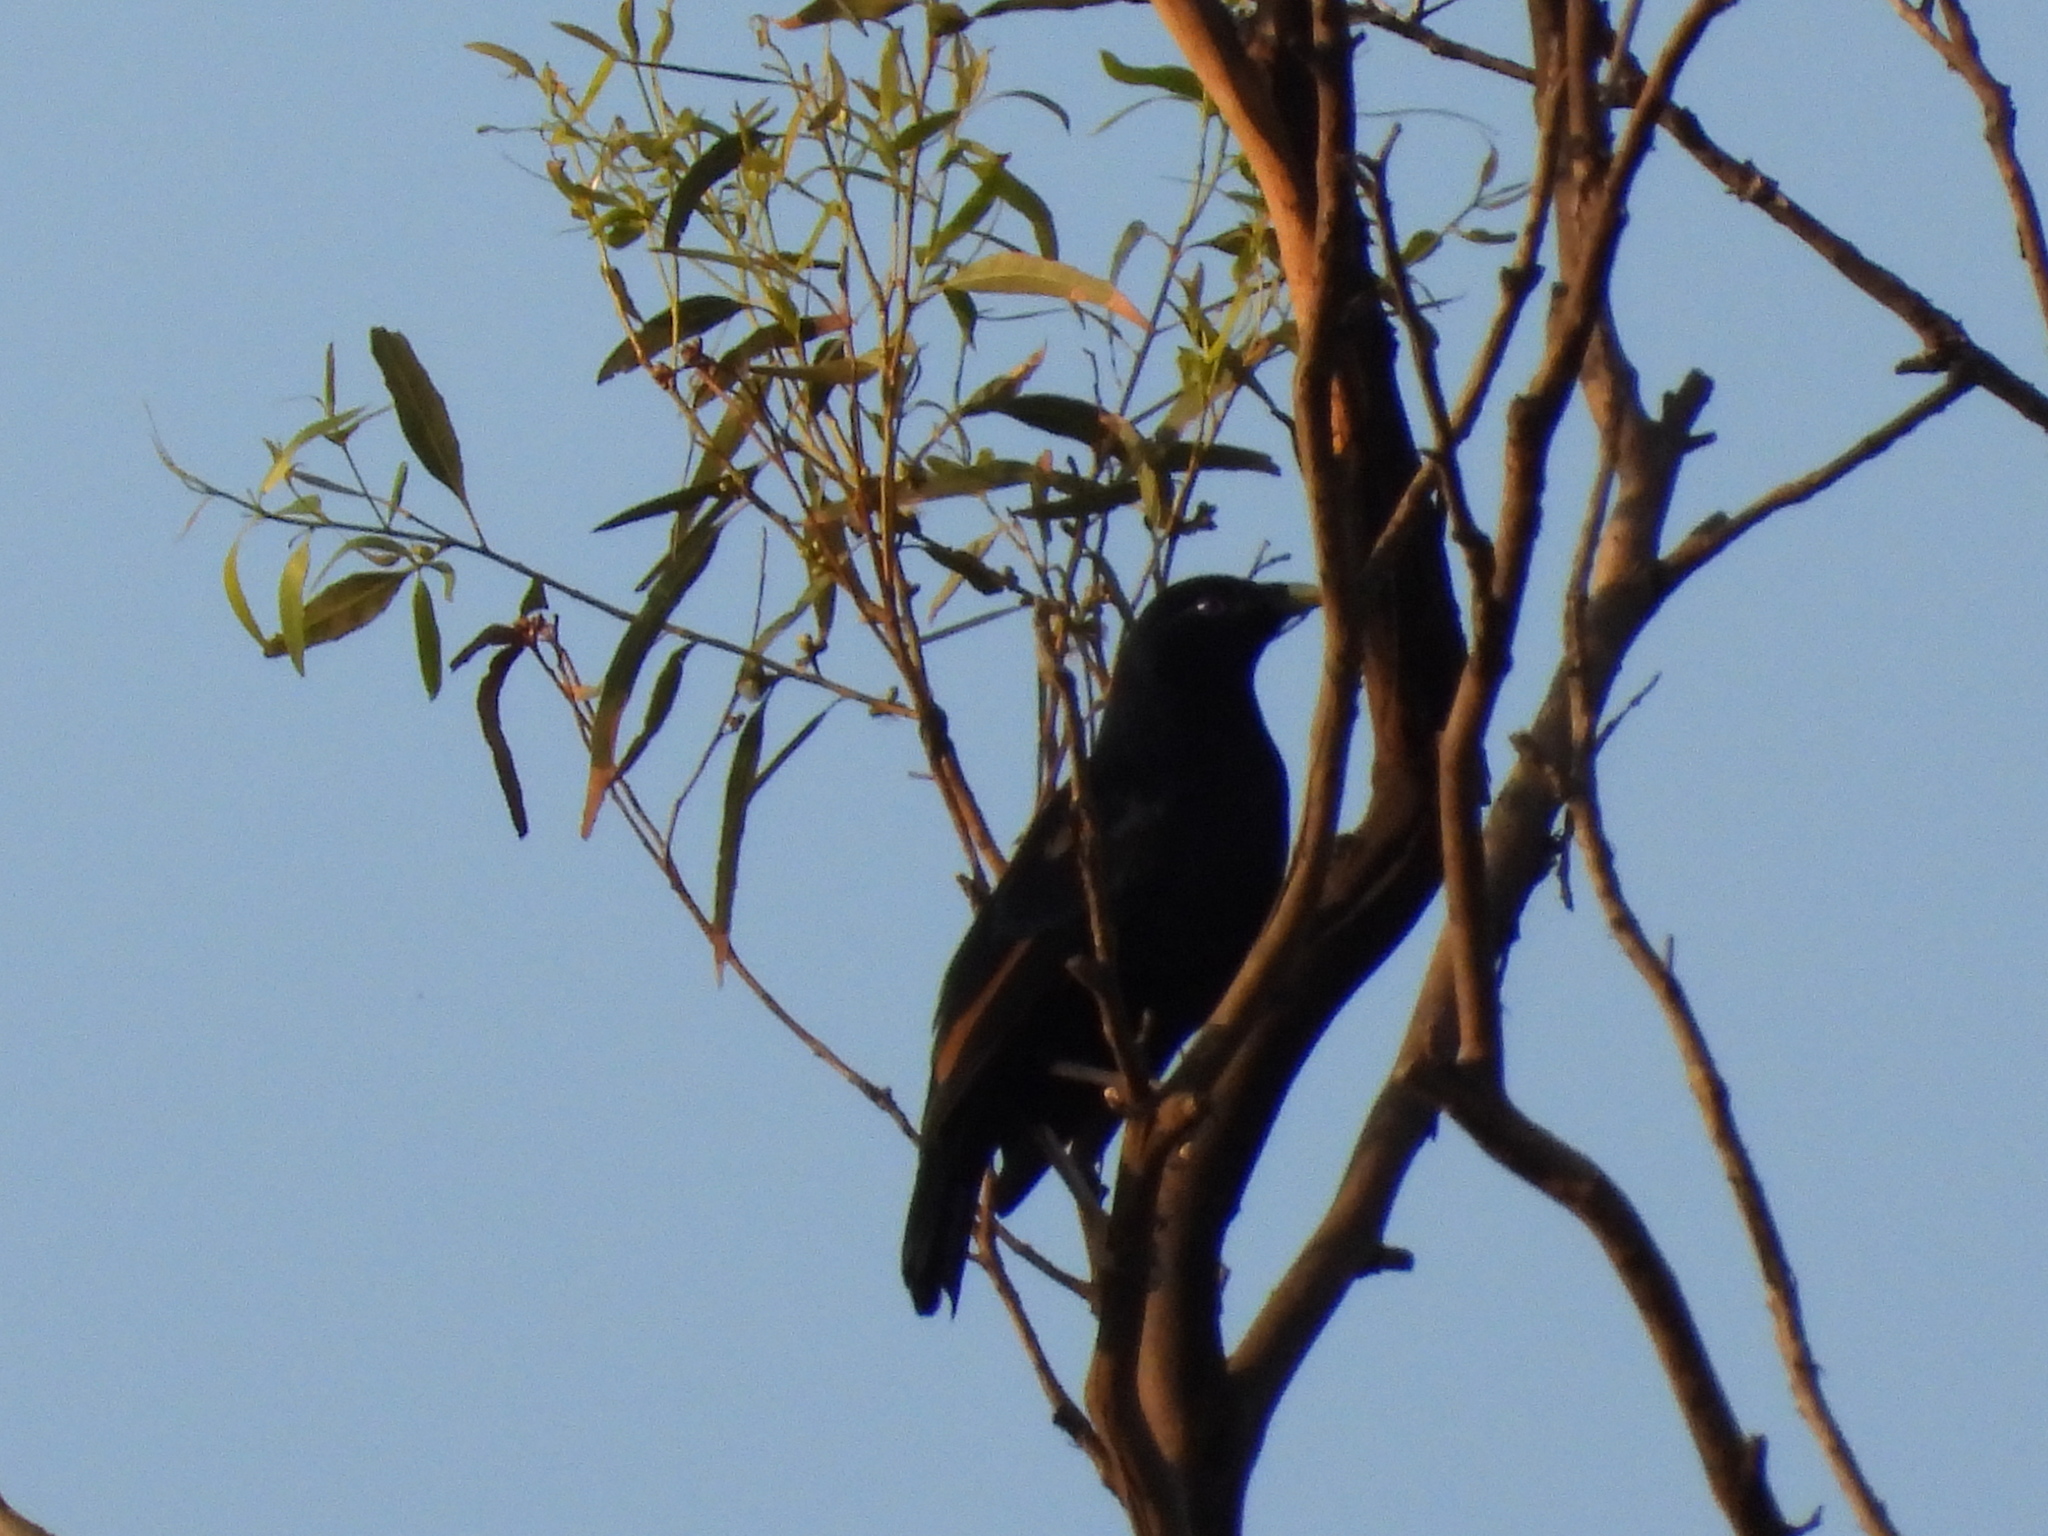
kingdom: Animalia
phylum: Chordata
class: Aves
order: Passeriformes
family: Ptilonorhynchidae
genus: Ptilonorhynchus
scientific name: Ptilonorhynchus violaceus
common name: Satin bowerbird
